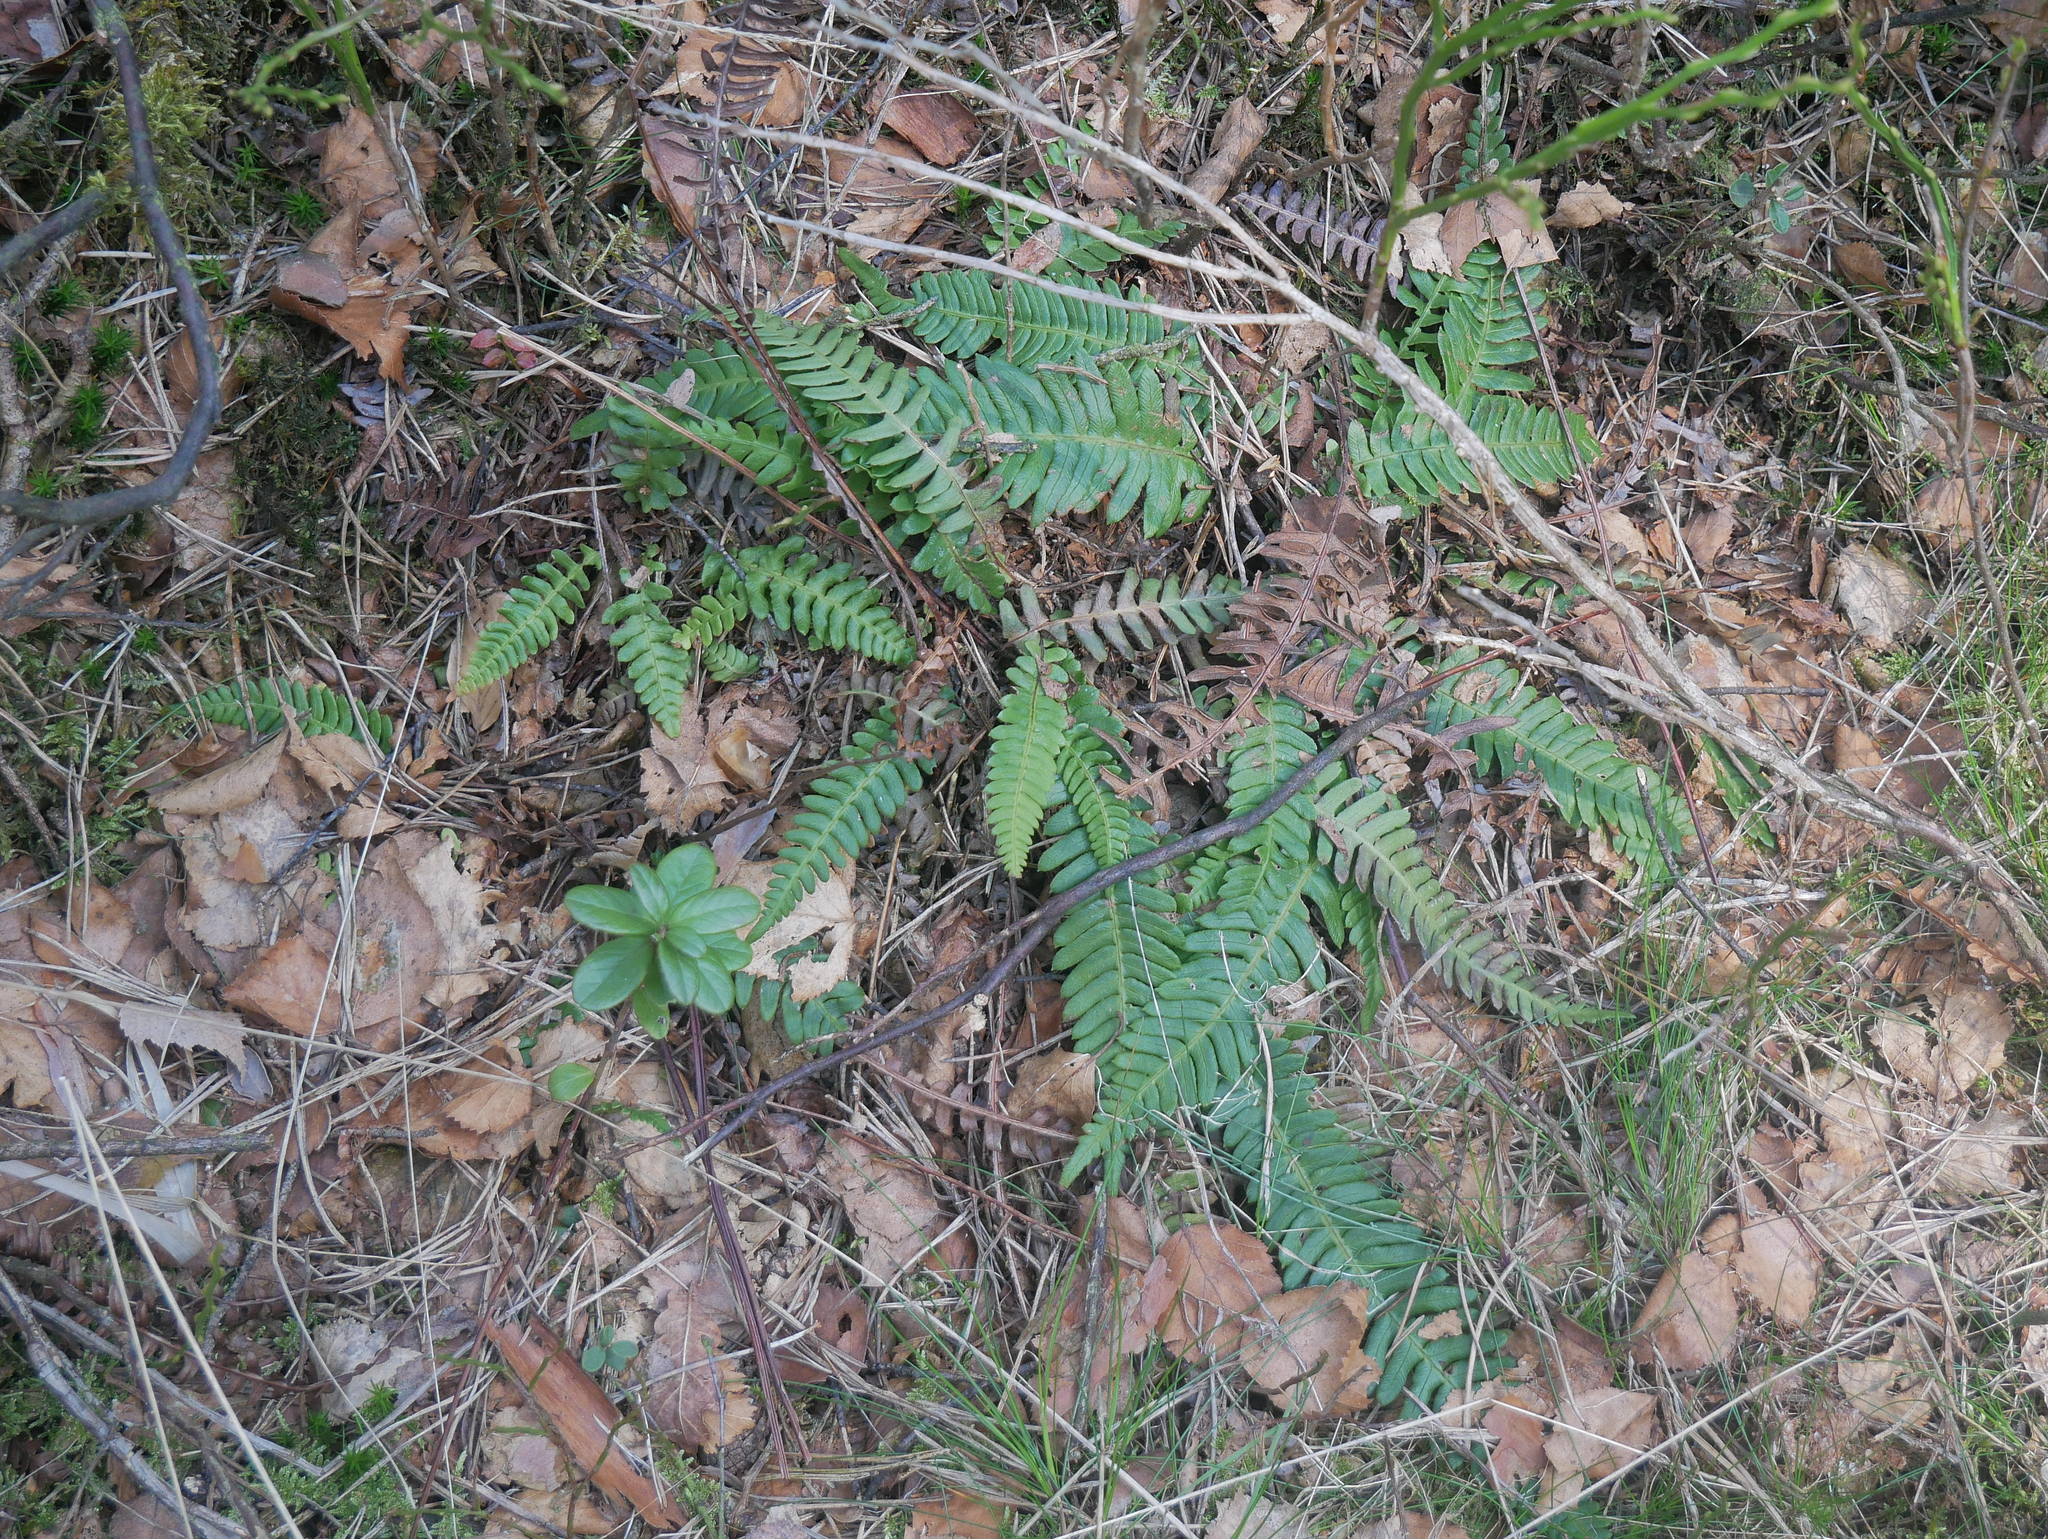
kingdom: Plantae
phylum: Tracheophyta
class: Polypodiopsida
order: Polypodiales
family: Blechnaceae
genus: Struthiopteris
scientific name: Struthiopteris spicant
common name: Deer fern
